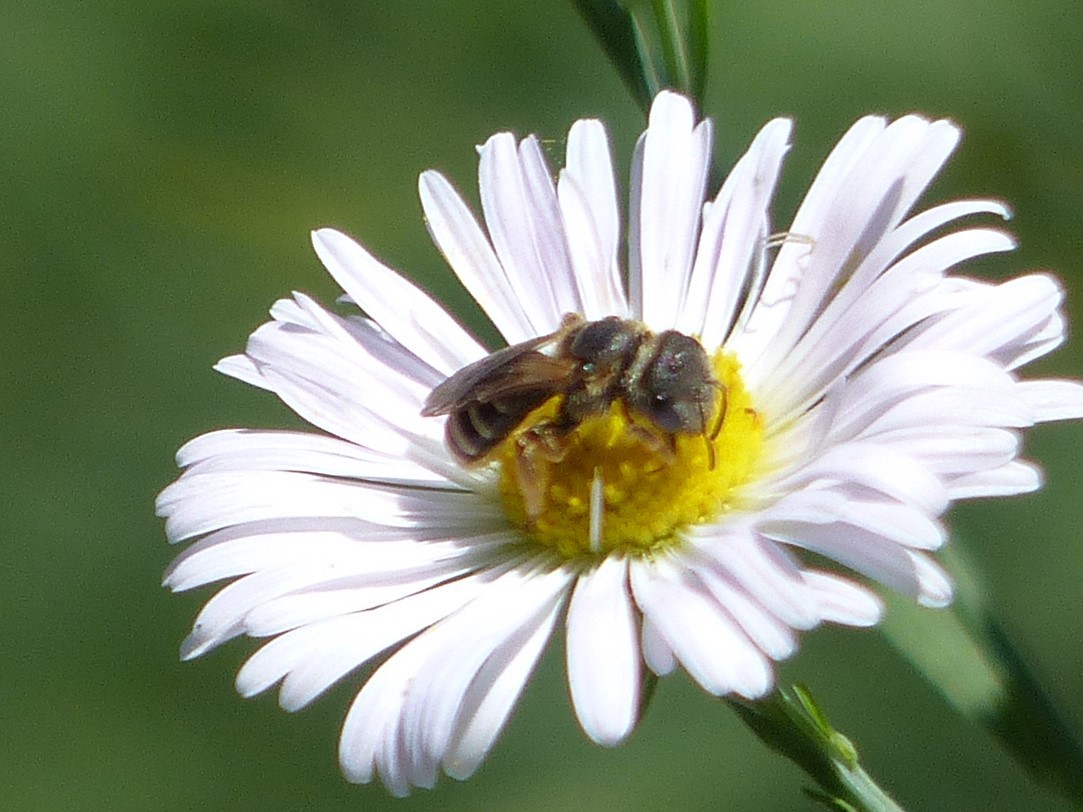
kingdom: Animalia
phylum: Arthropoda
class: Insecta
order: Hymenoptera
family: Halictidae
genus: Halictus
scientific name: Halictus ligatus
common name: Ligated furrow bee
